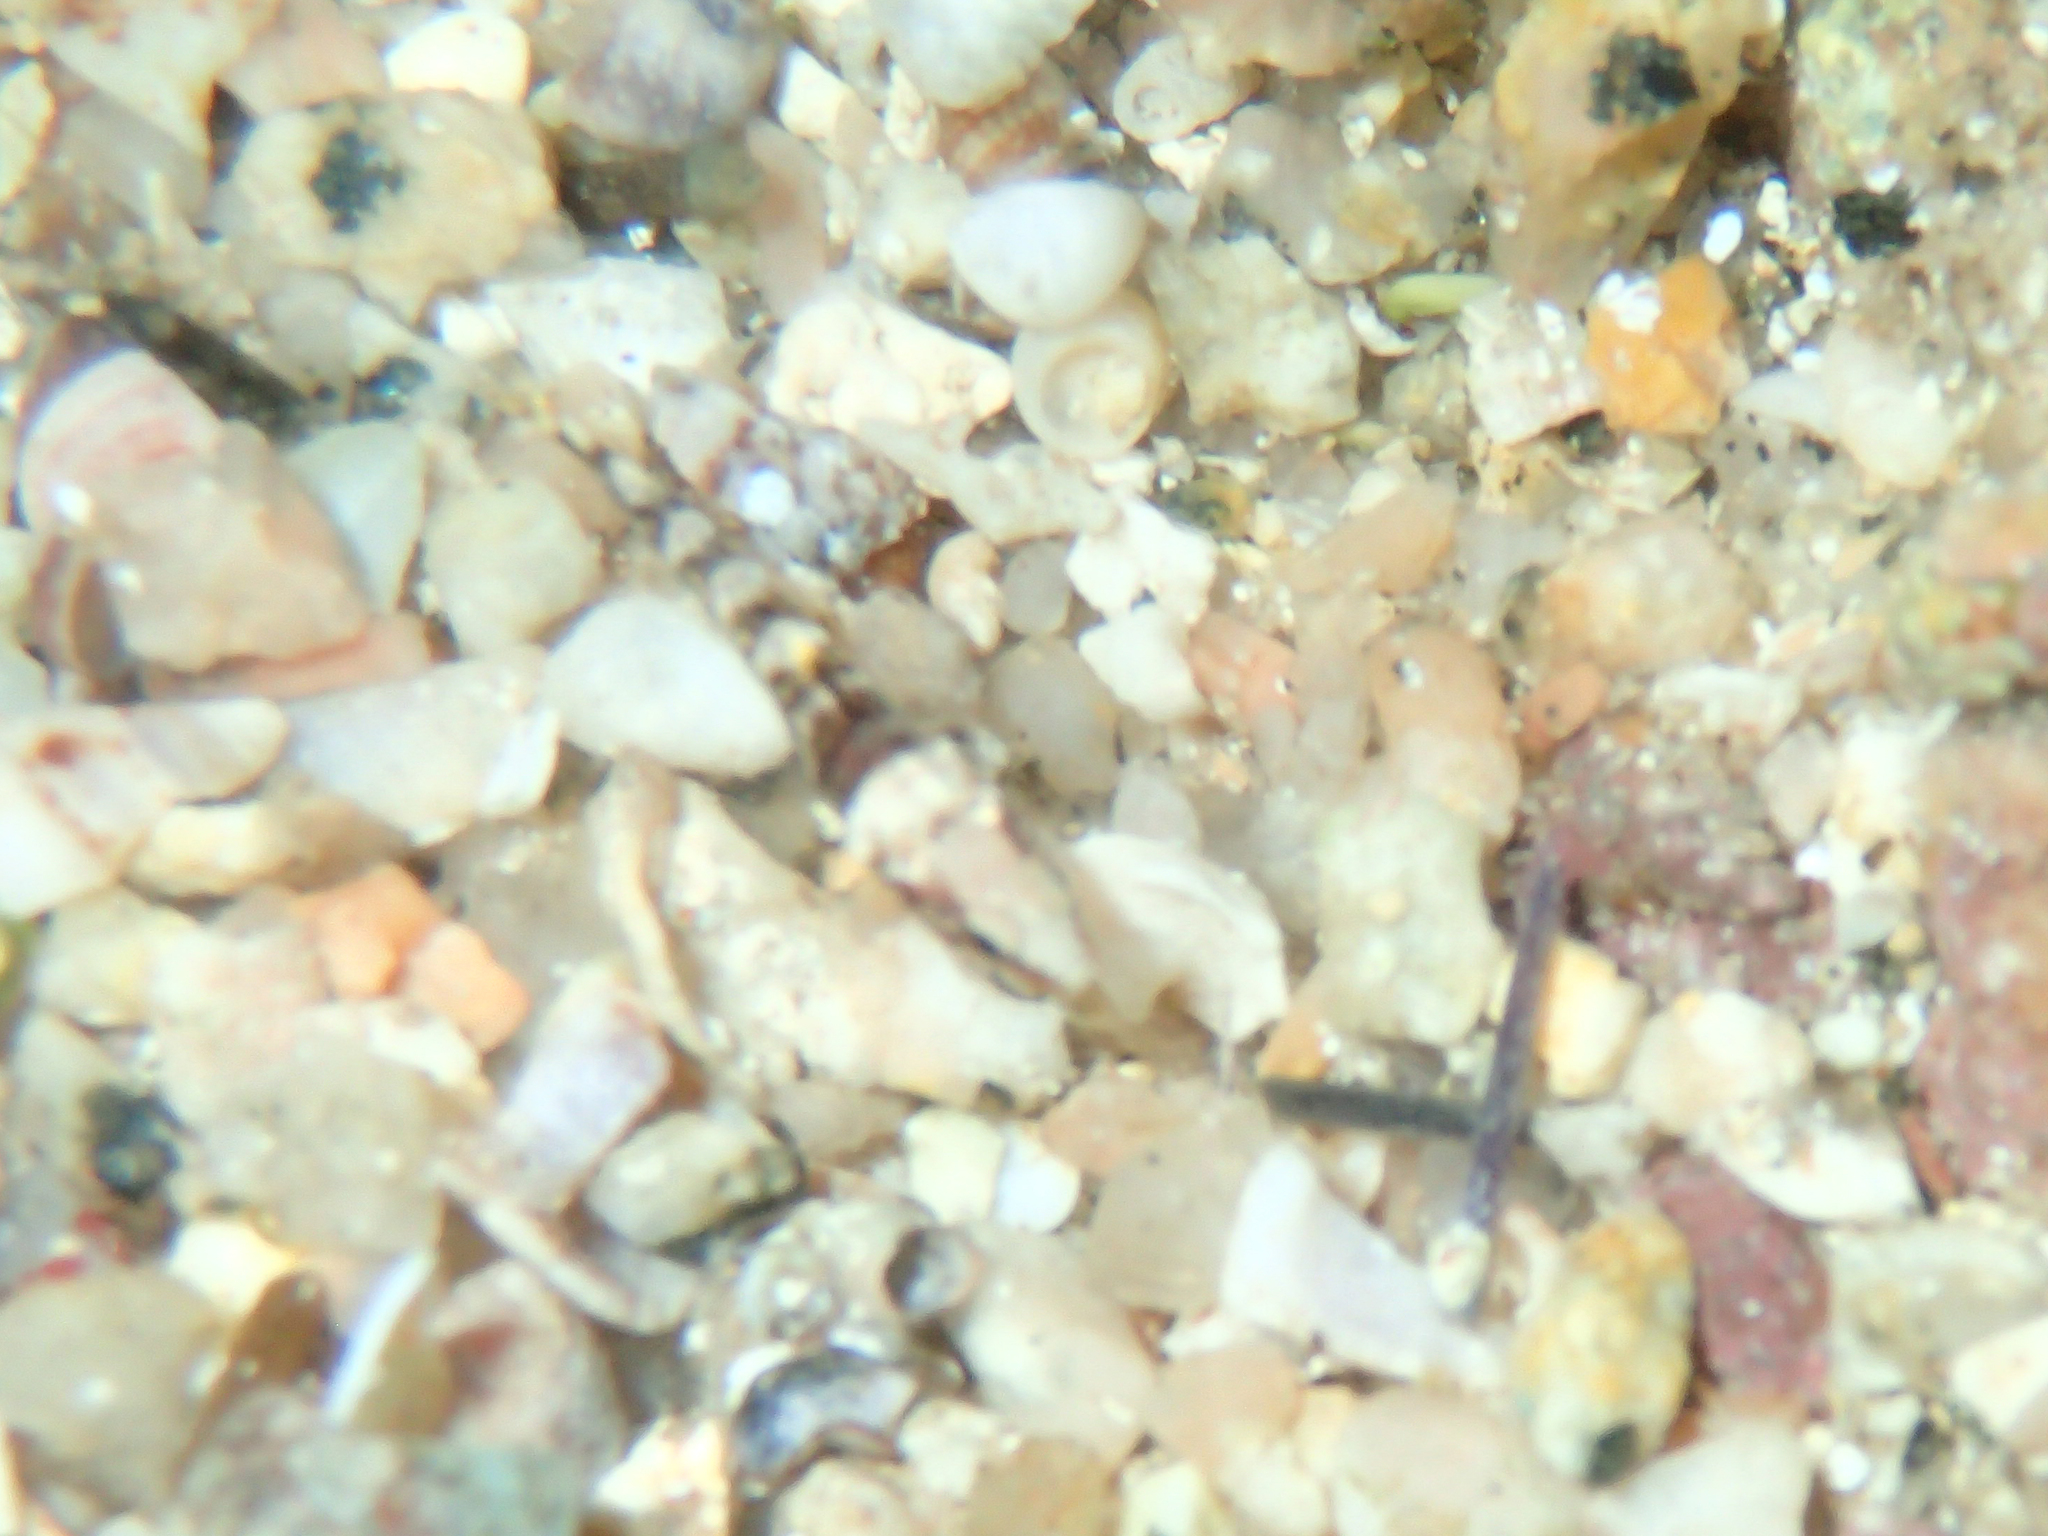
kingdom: Animalia
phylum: Chordata
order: Perciformes
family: Gobiidae
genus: Chromogobius
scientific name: Chromogobius zebratus
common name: Kolombatovic's goby
